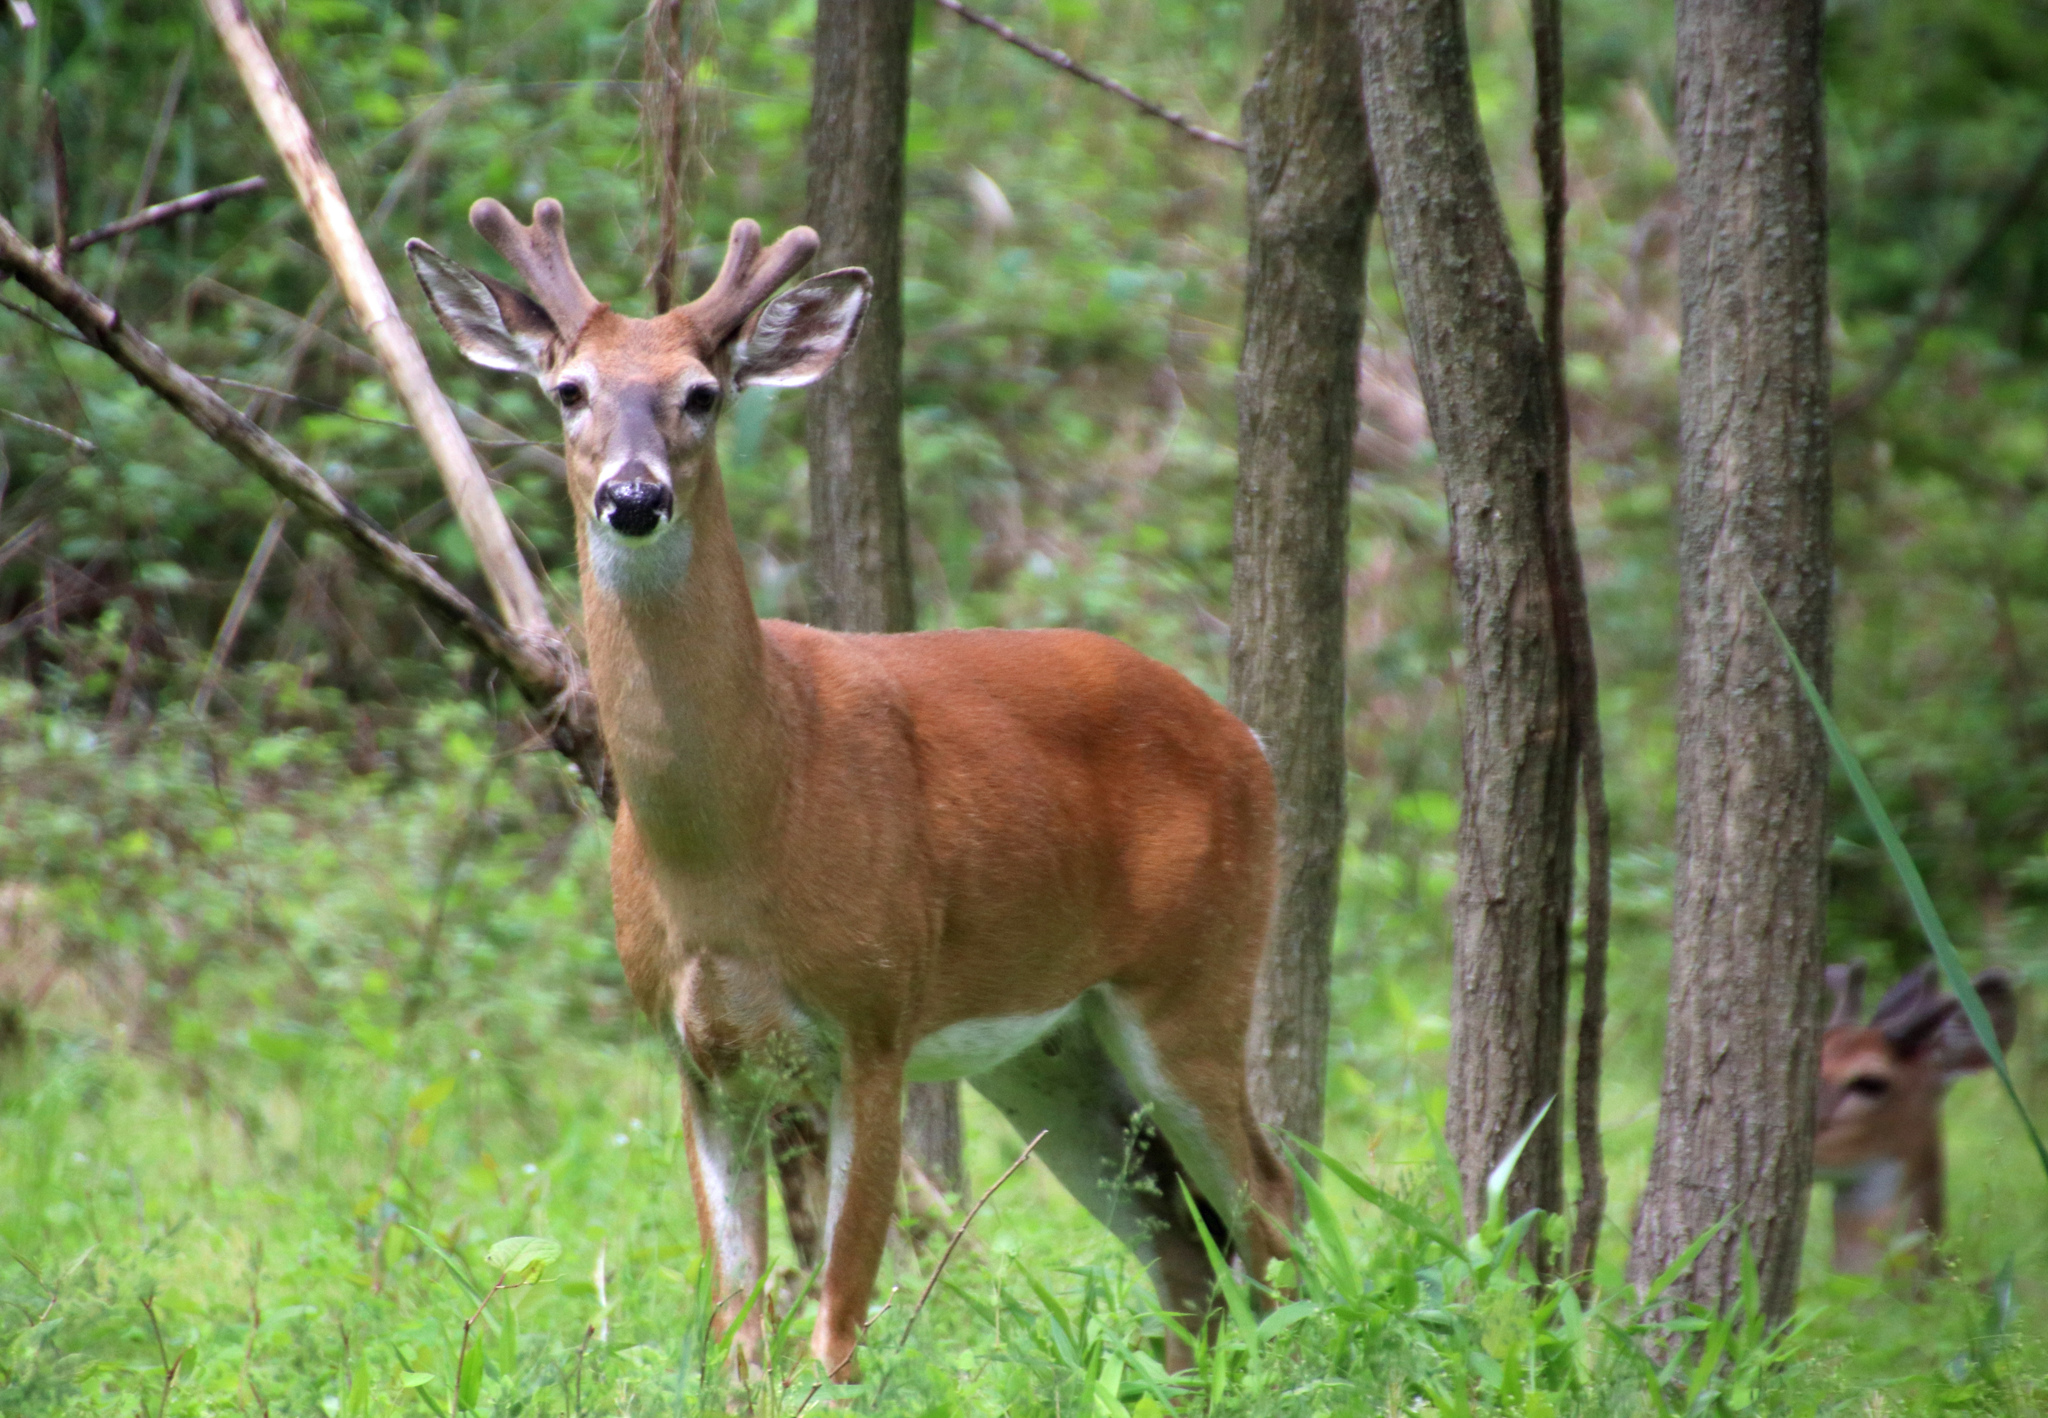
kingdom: Animalia
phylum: Chordata
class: Mammalia
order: Artiodactyla
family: Cervidae
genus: Odocoileus
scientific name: Odocoileus virginianus
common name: White-tailed deer
